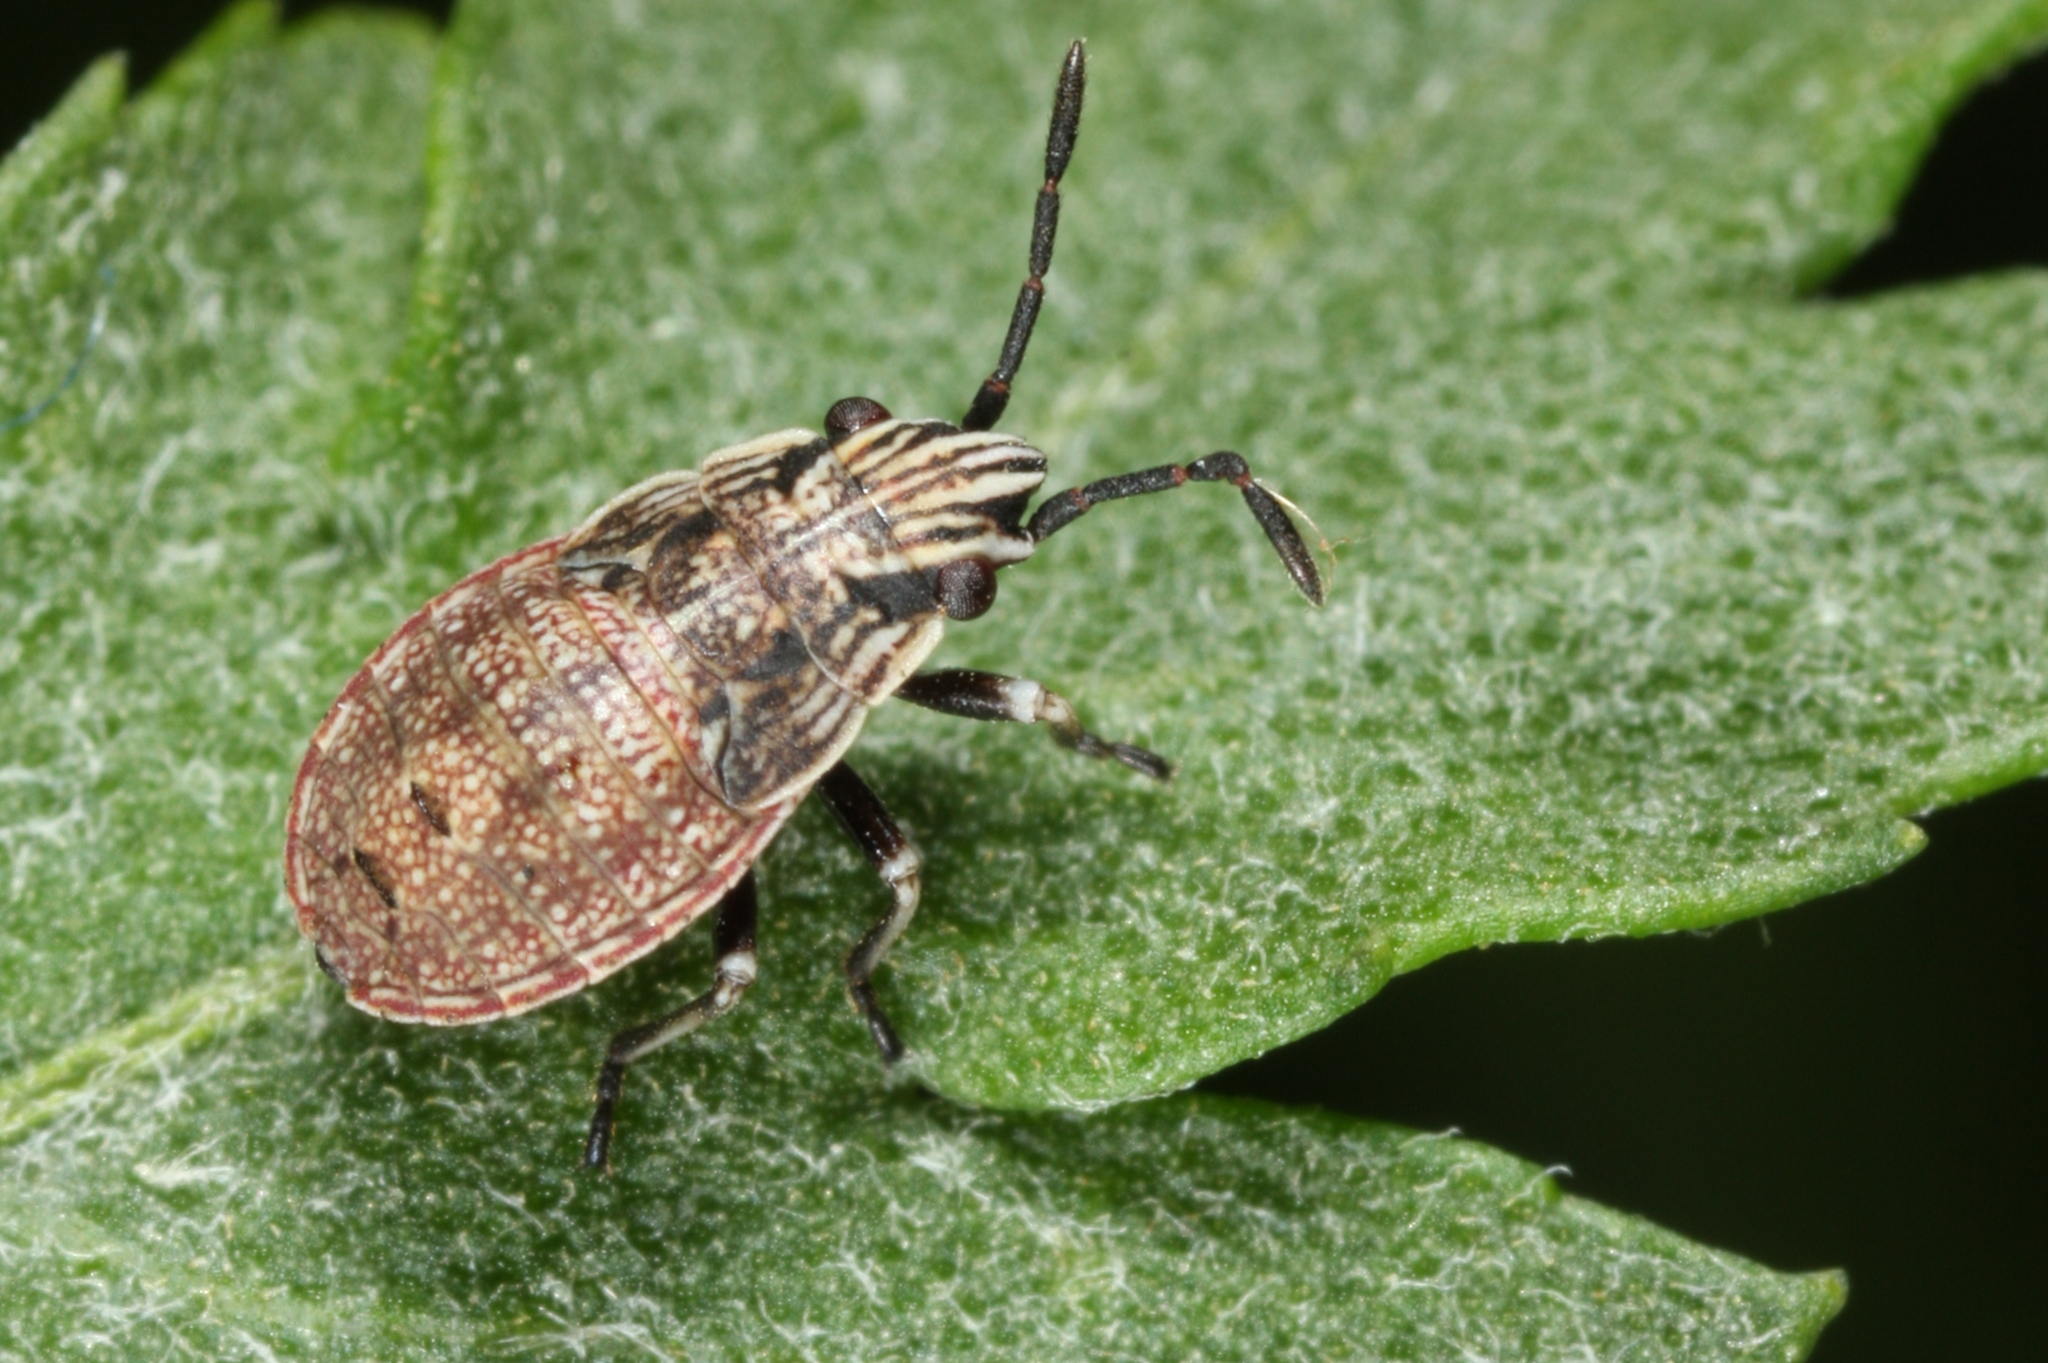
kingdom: Animalia
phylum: Arthropoda
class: Insecta
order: Hemiptera
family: Lygaeidae
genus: Nithecus
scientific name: Nithecus jacobaeae
